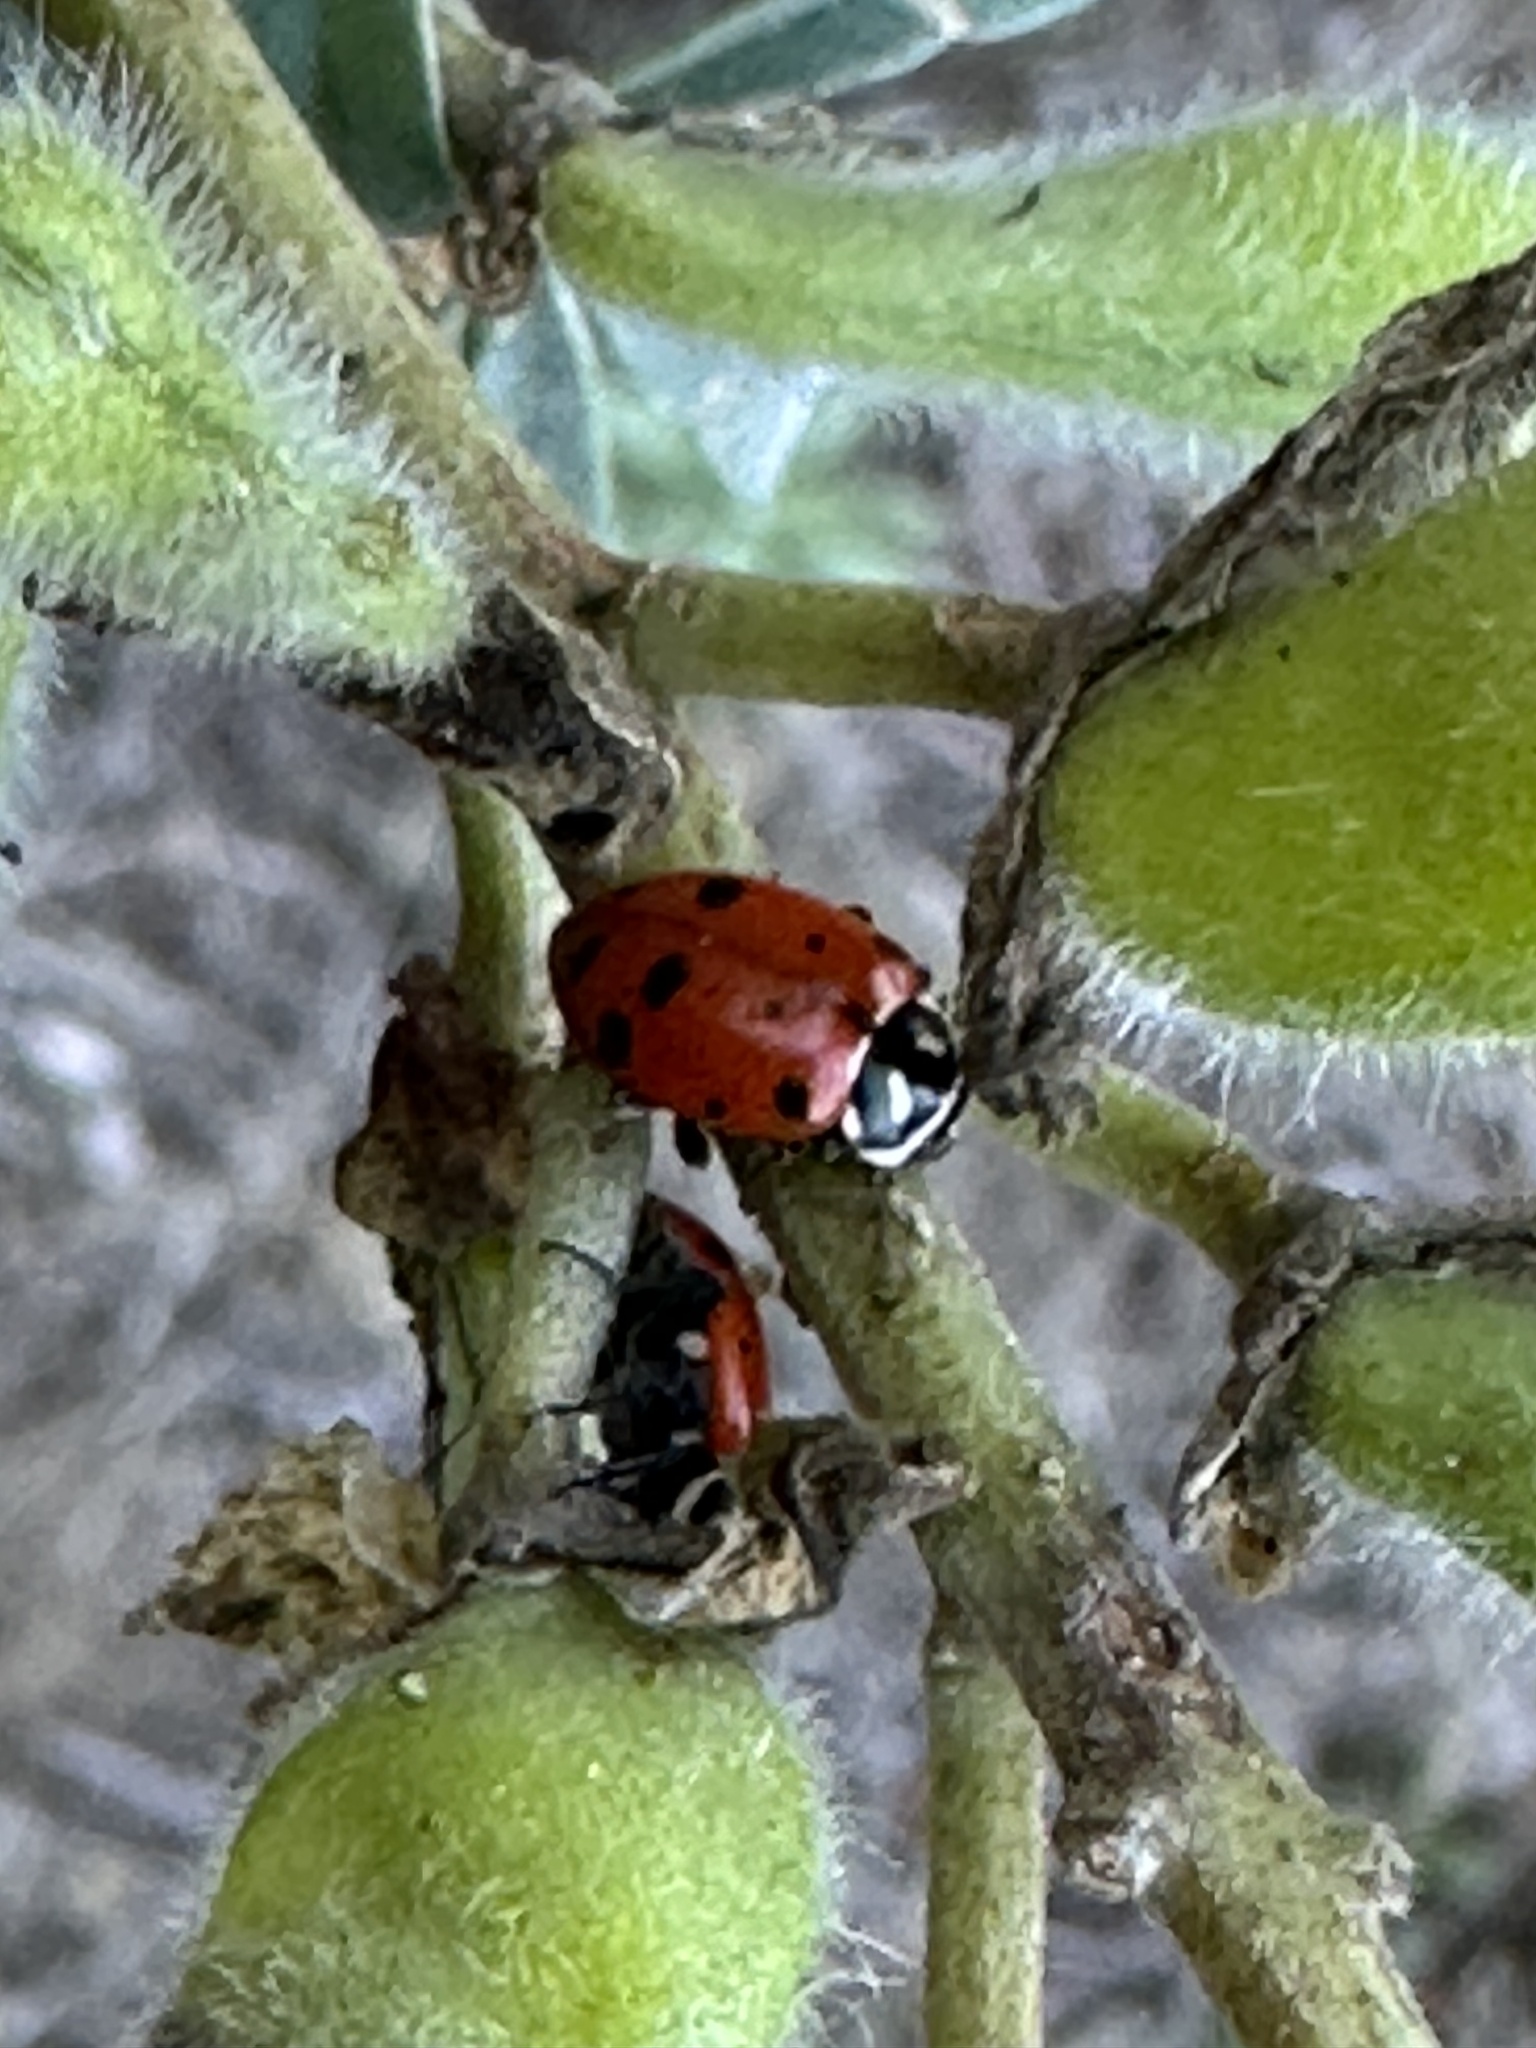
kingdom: Animalia
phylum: Arthropoda
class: Insecta
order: Coleoptera
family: Coccinellidae
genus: Hippodamia
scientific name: Hippodamia convergens
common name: Convergent lady beetle
